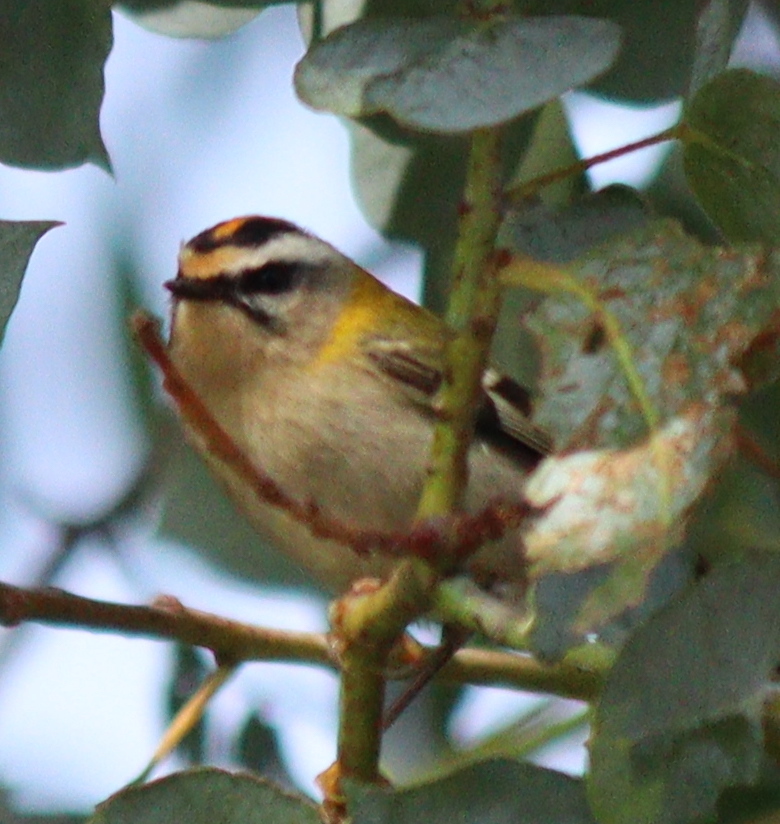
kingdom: Animalia
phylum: Chordata
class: Aves
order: Passeriformes
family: Regulidae
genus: Regulus
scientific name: Regulus ignicapilla
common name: Firecrest
